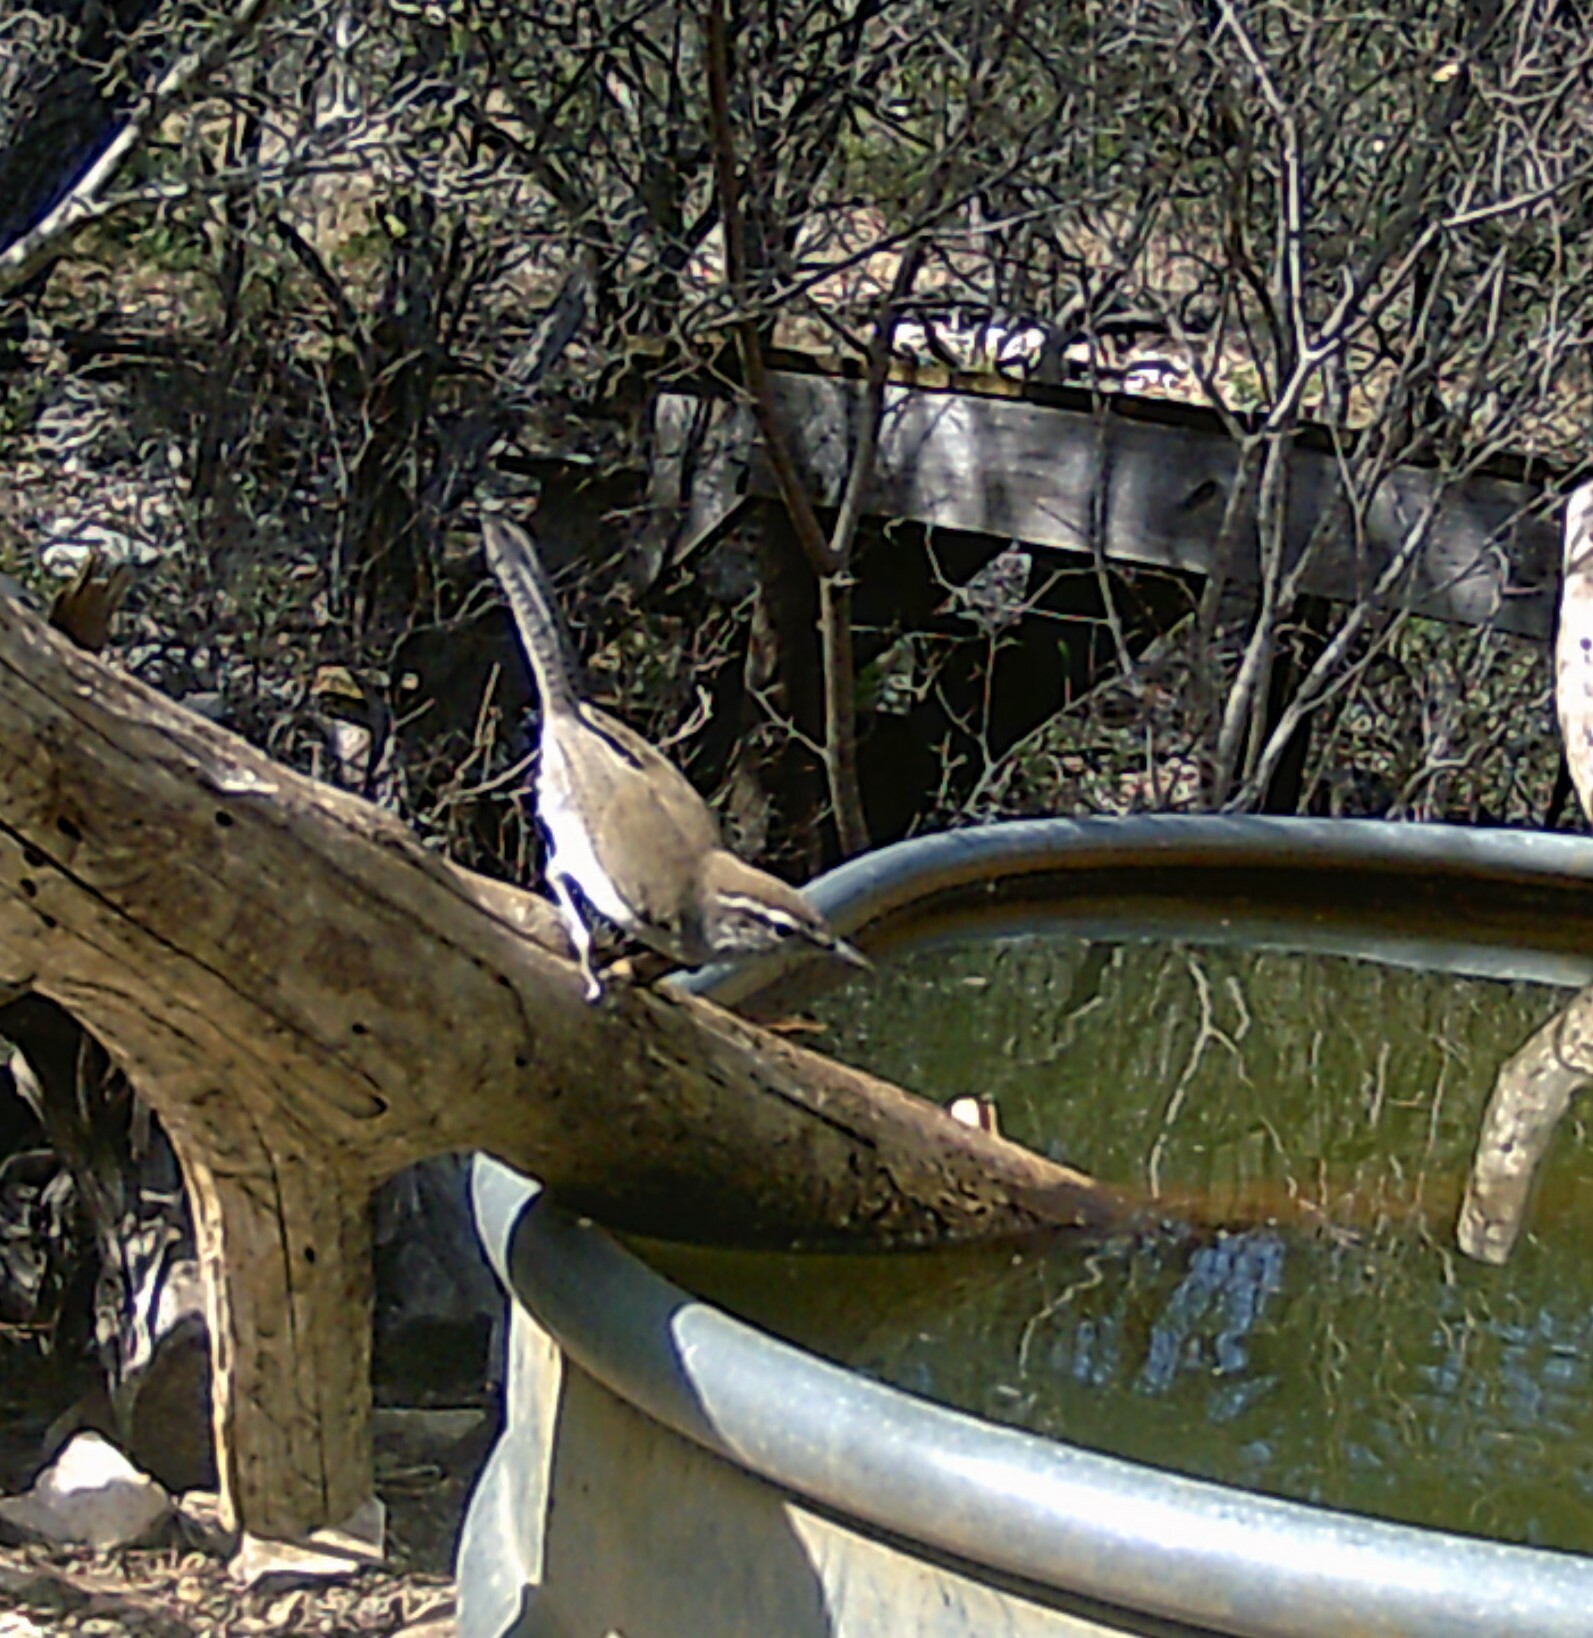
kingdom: Animalia
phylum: Chordata
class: Aves
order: Passeriformes
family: Troglodytidae
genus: Thryomanes
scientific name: Thryomanes bewickii
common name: Bewick's wren
